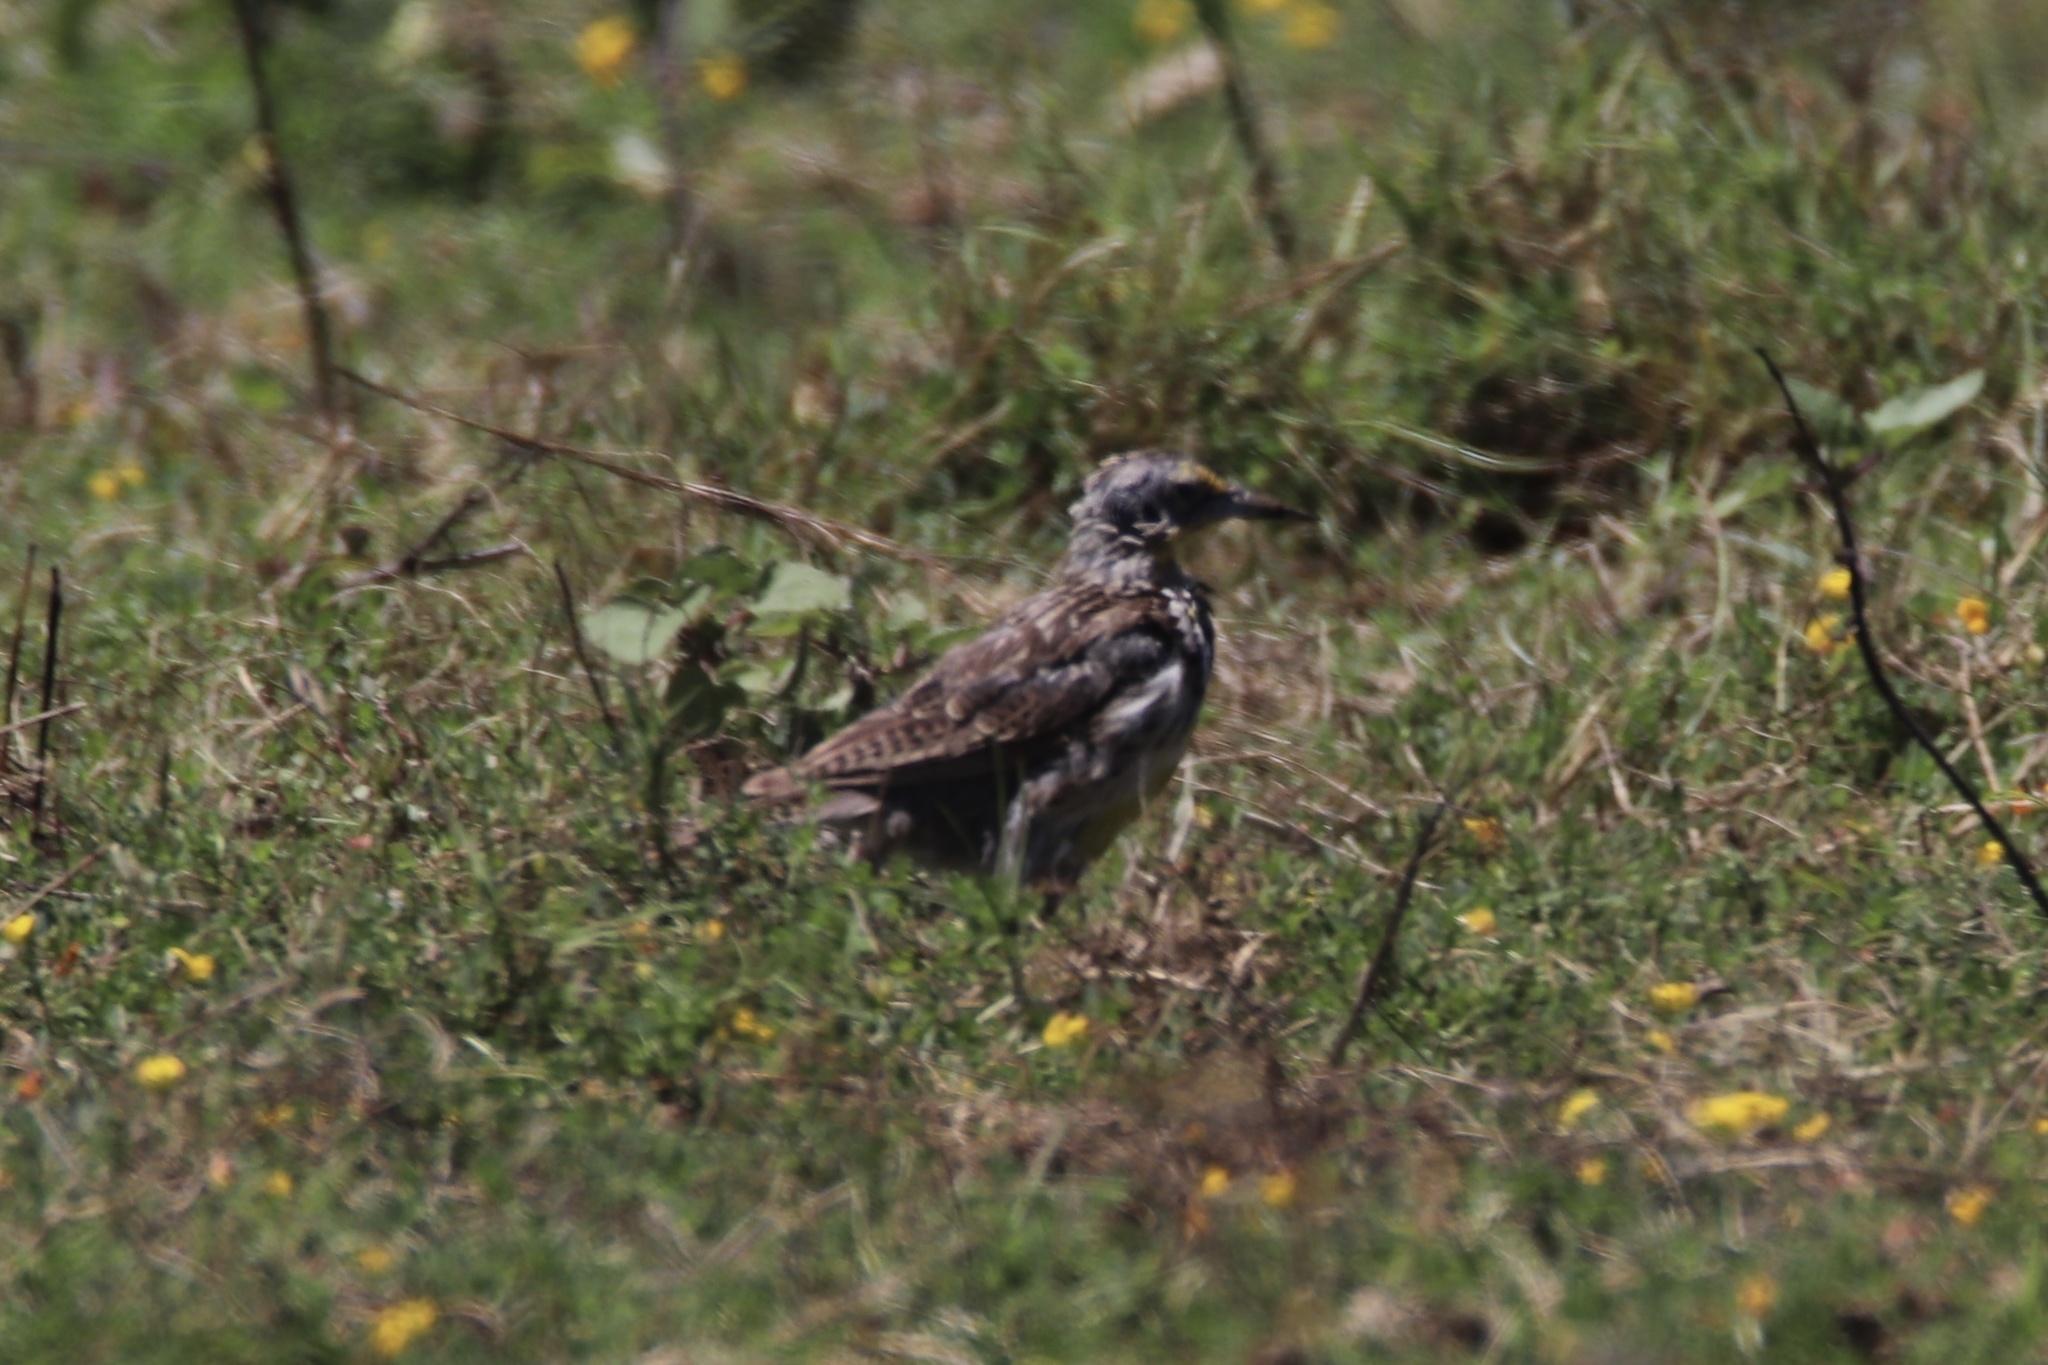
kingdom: Animalia
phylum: Chordata
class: Aves
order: Passeriformes
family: Icteridae
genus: Sturnella
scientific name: Sturnella neglecta
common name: Western meadowlark
